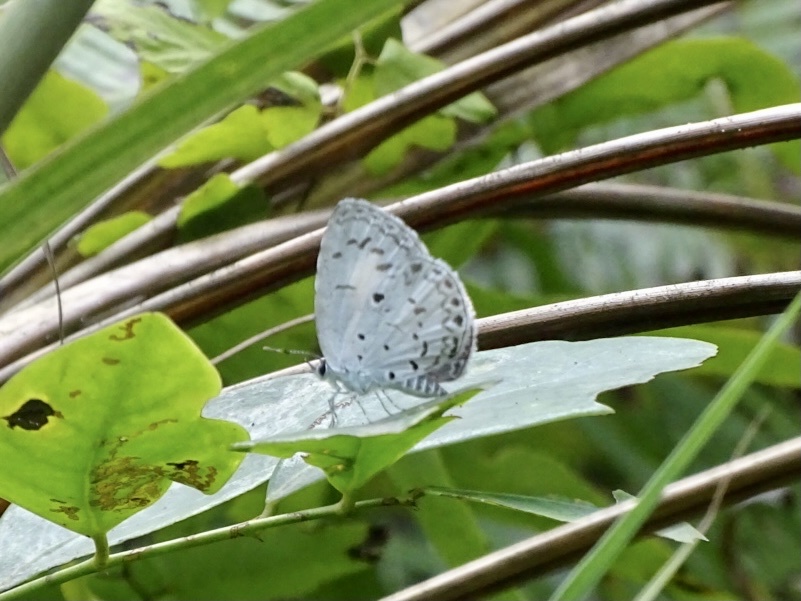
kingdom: Animalia
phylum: Arthropoda
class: Insecta
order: Lepidoptera
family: Lycaenidae
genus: Acytolepis
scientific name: Acytolepis puspa
